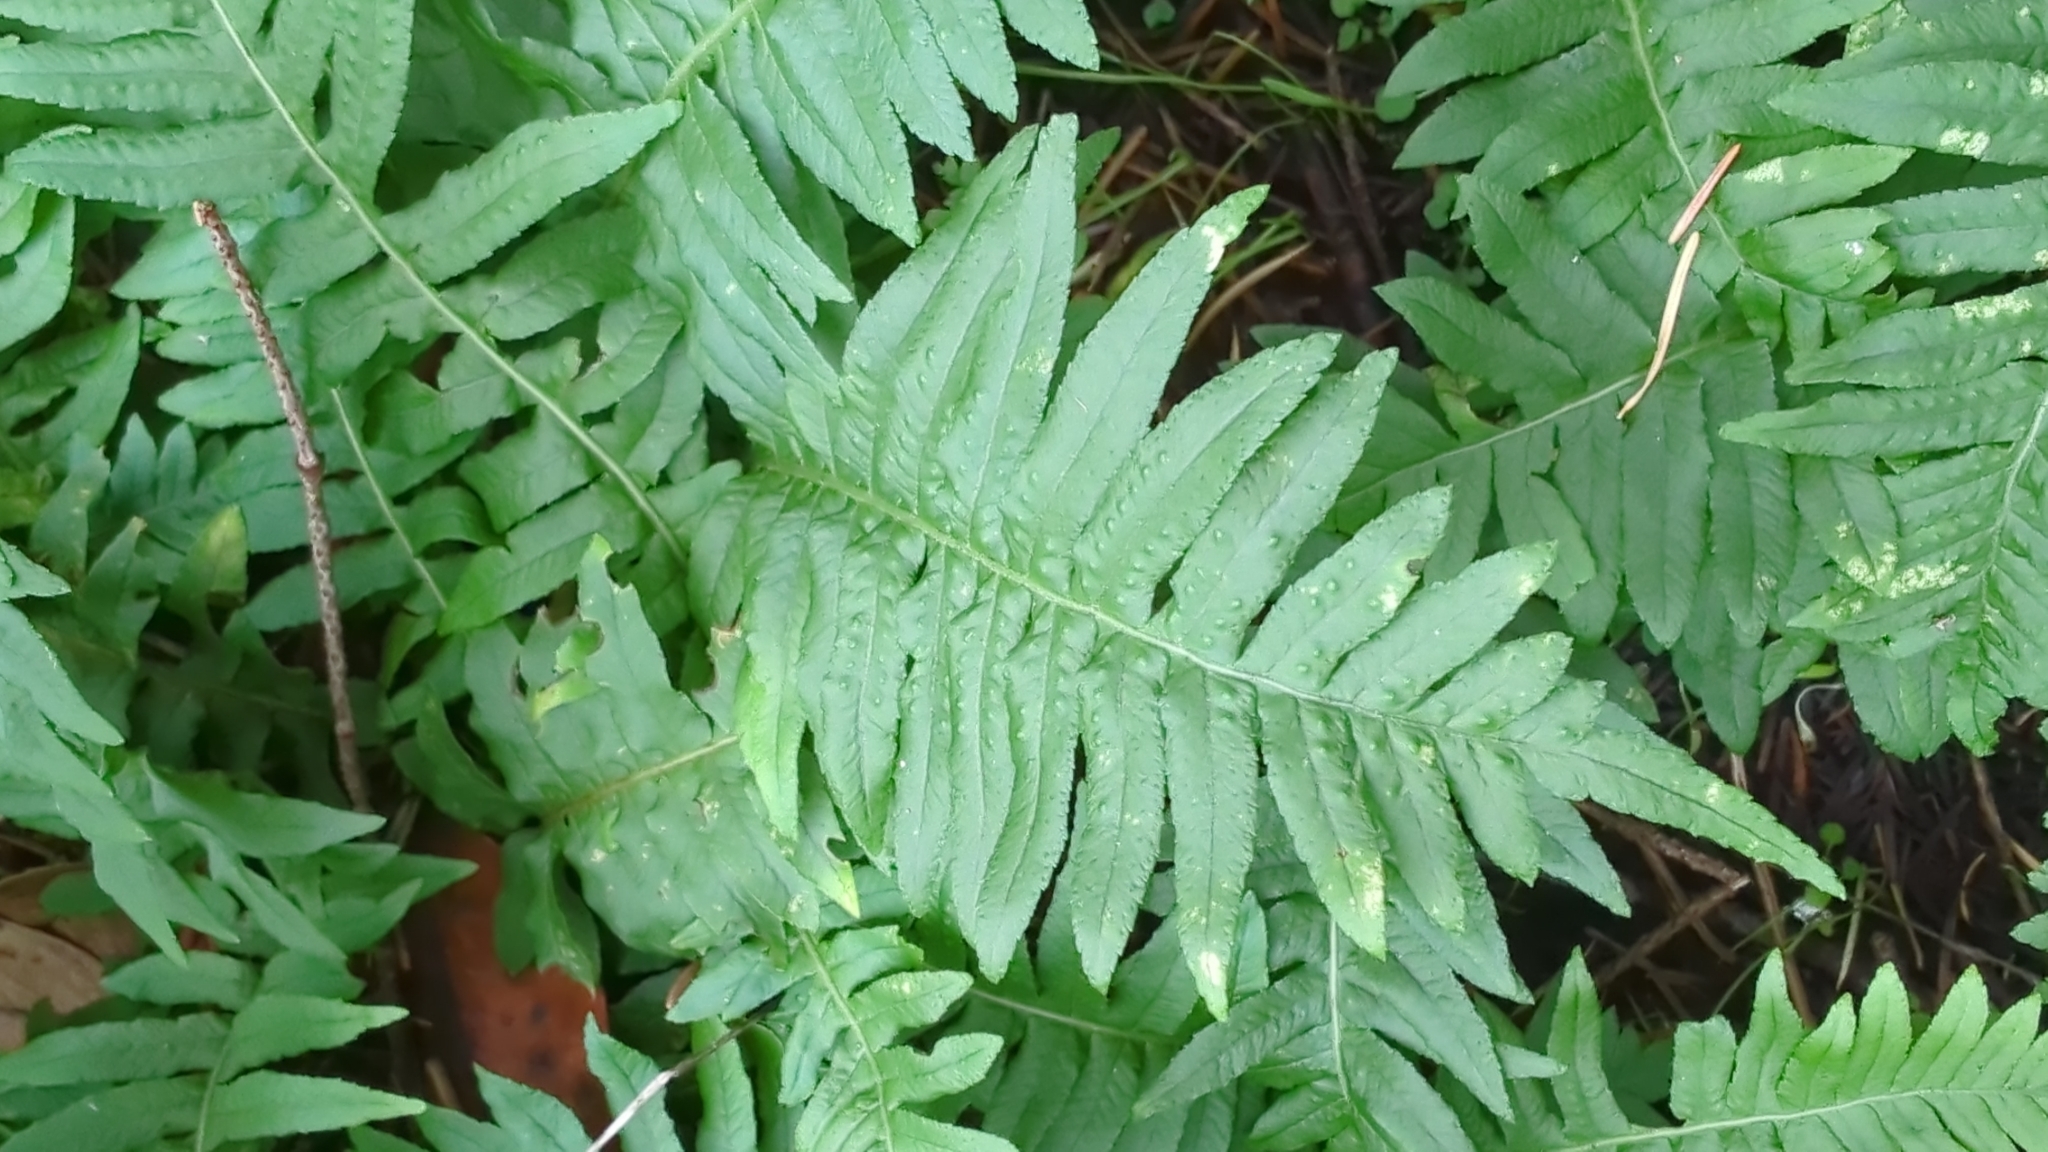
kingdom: Plantae
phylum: Tracheophyta
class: Polypodiopsida
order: Polypodiales
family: Polypodiaceae
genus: Polypodium
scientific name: Polypodium glycyrrhiza
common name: Licorice fern
